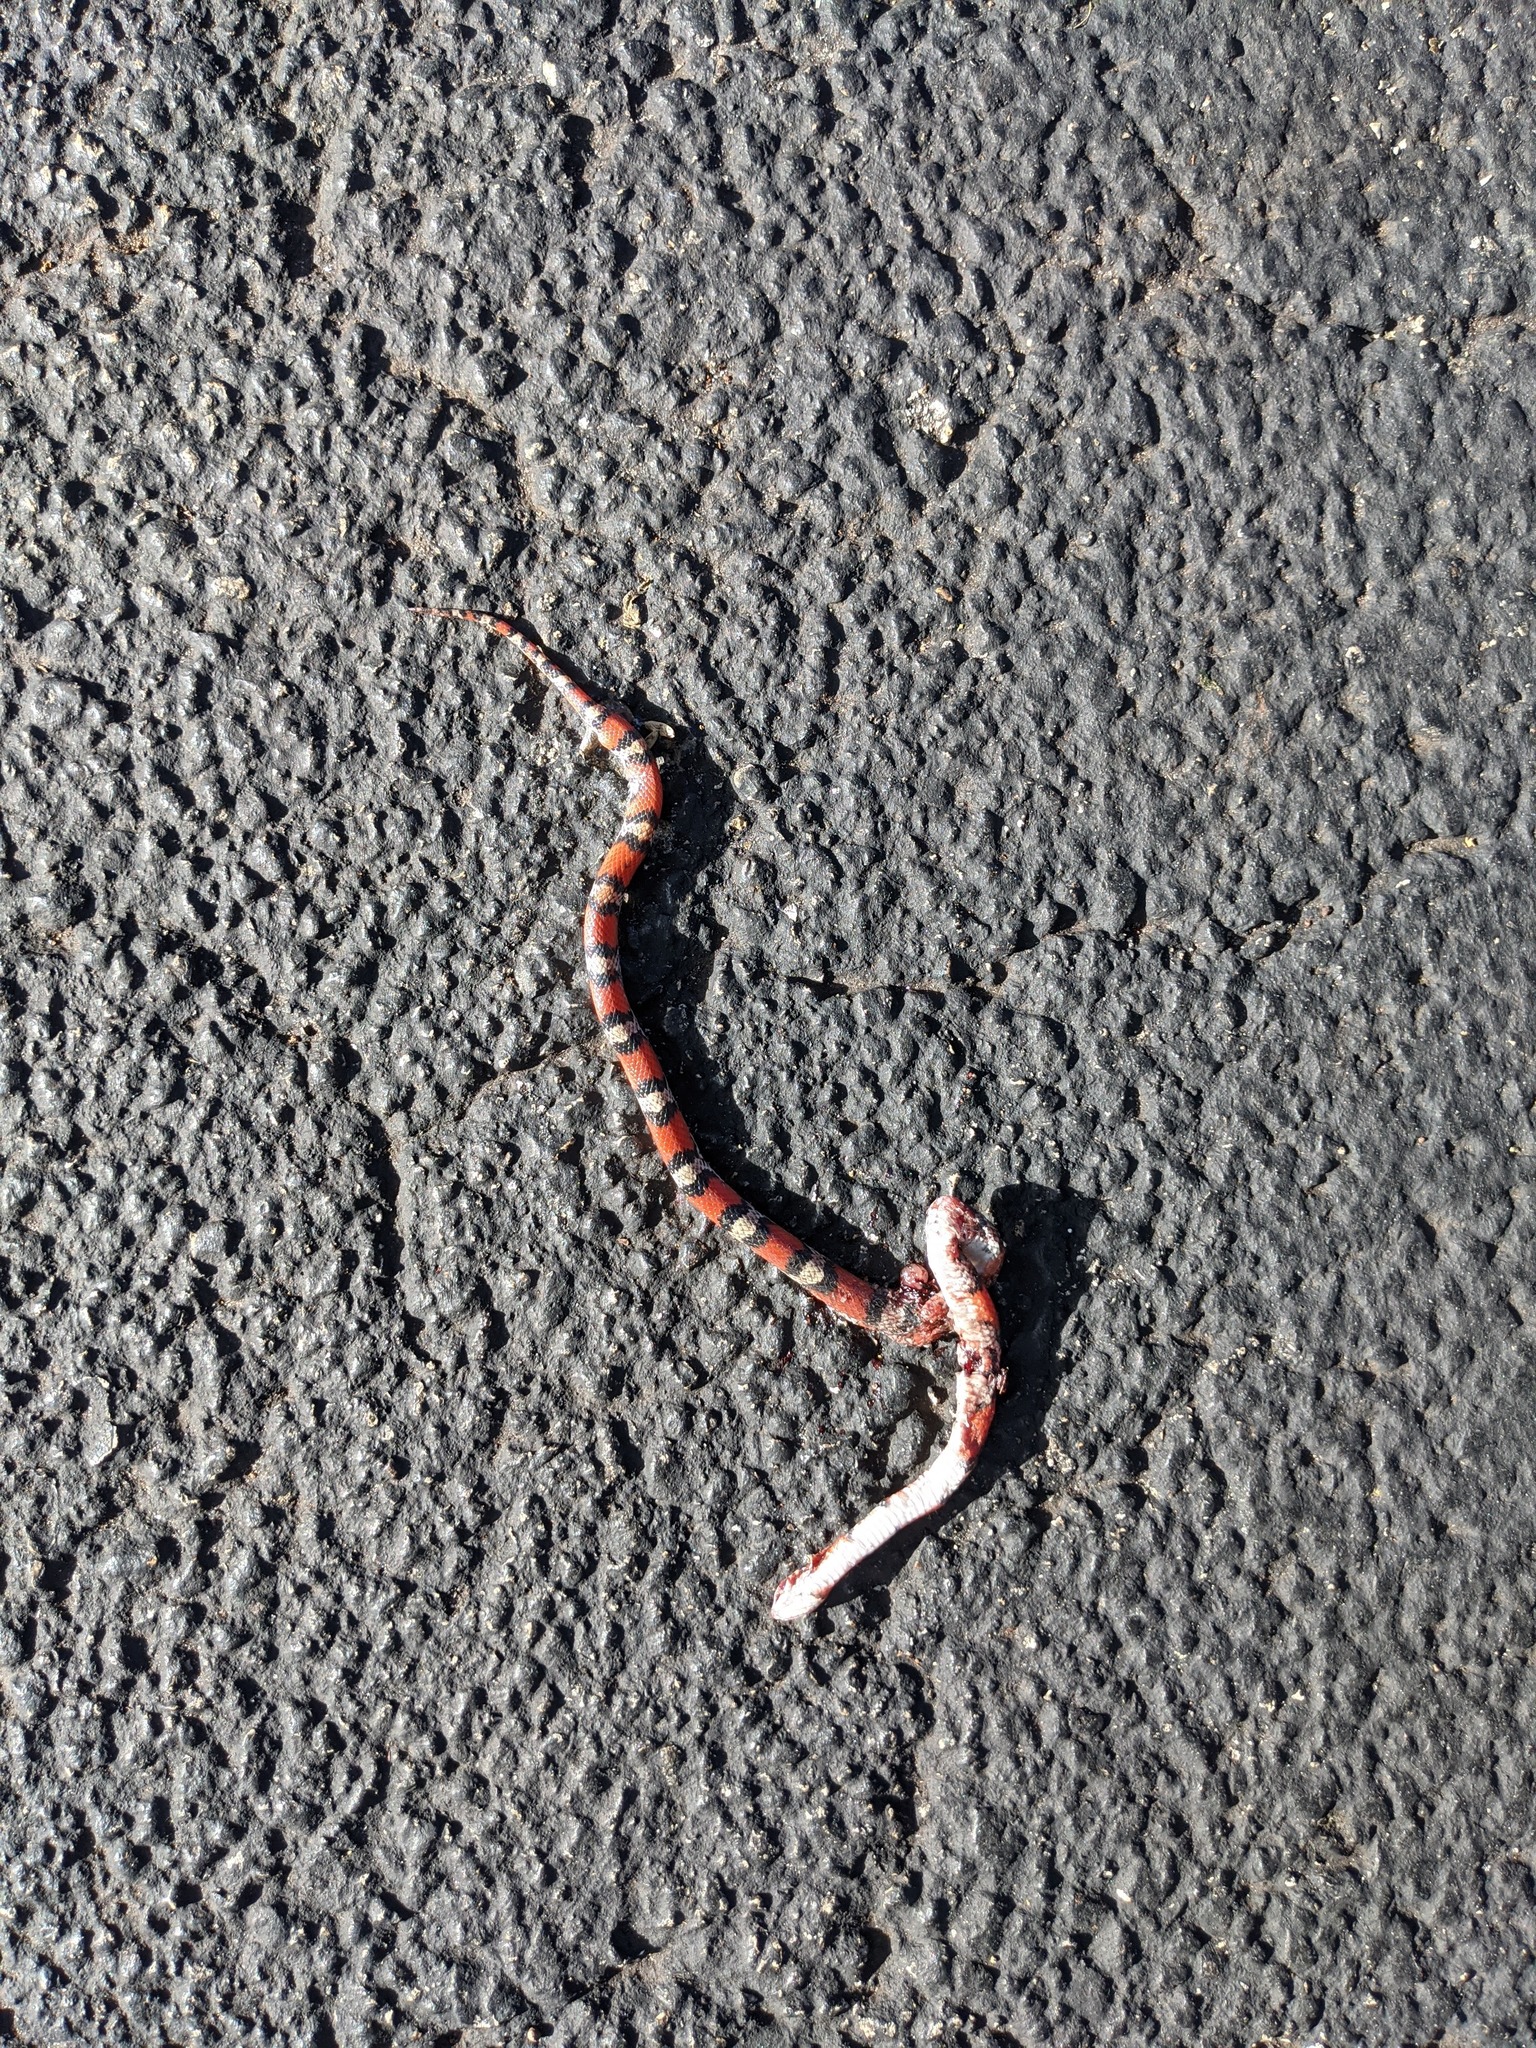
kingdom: Animalia
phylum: Chordata
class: Squamata
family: Colubridae
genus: Cemophora
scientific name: Cemophora coccinea
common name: Scarlet snake
